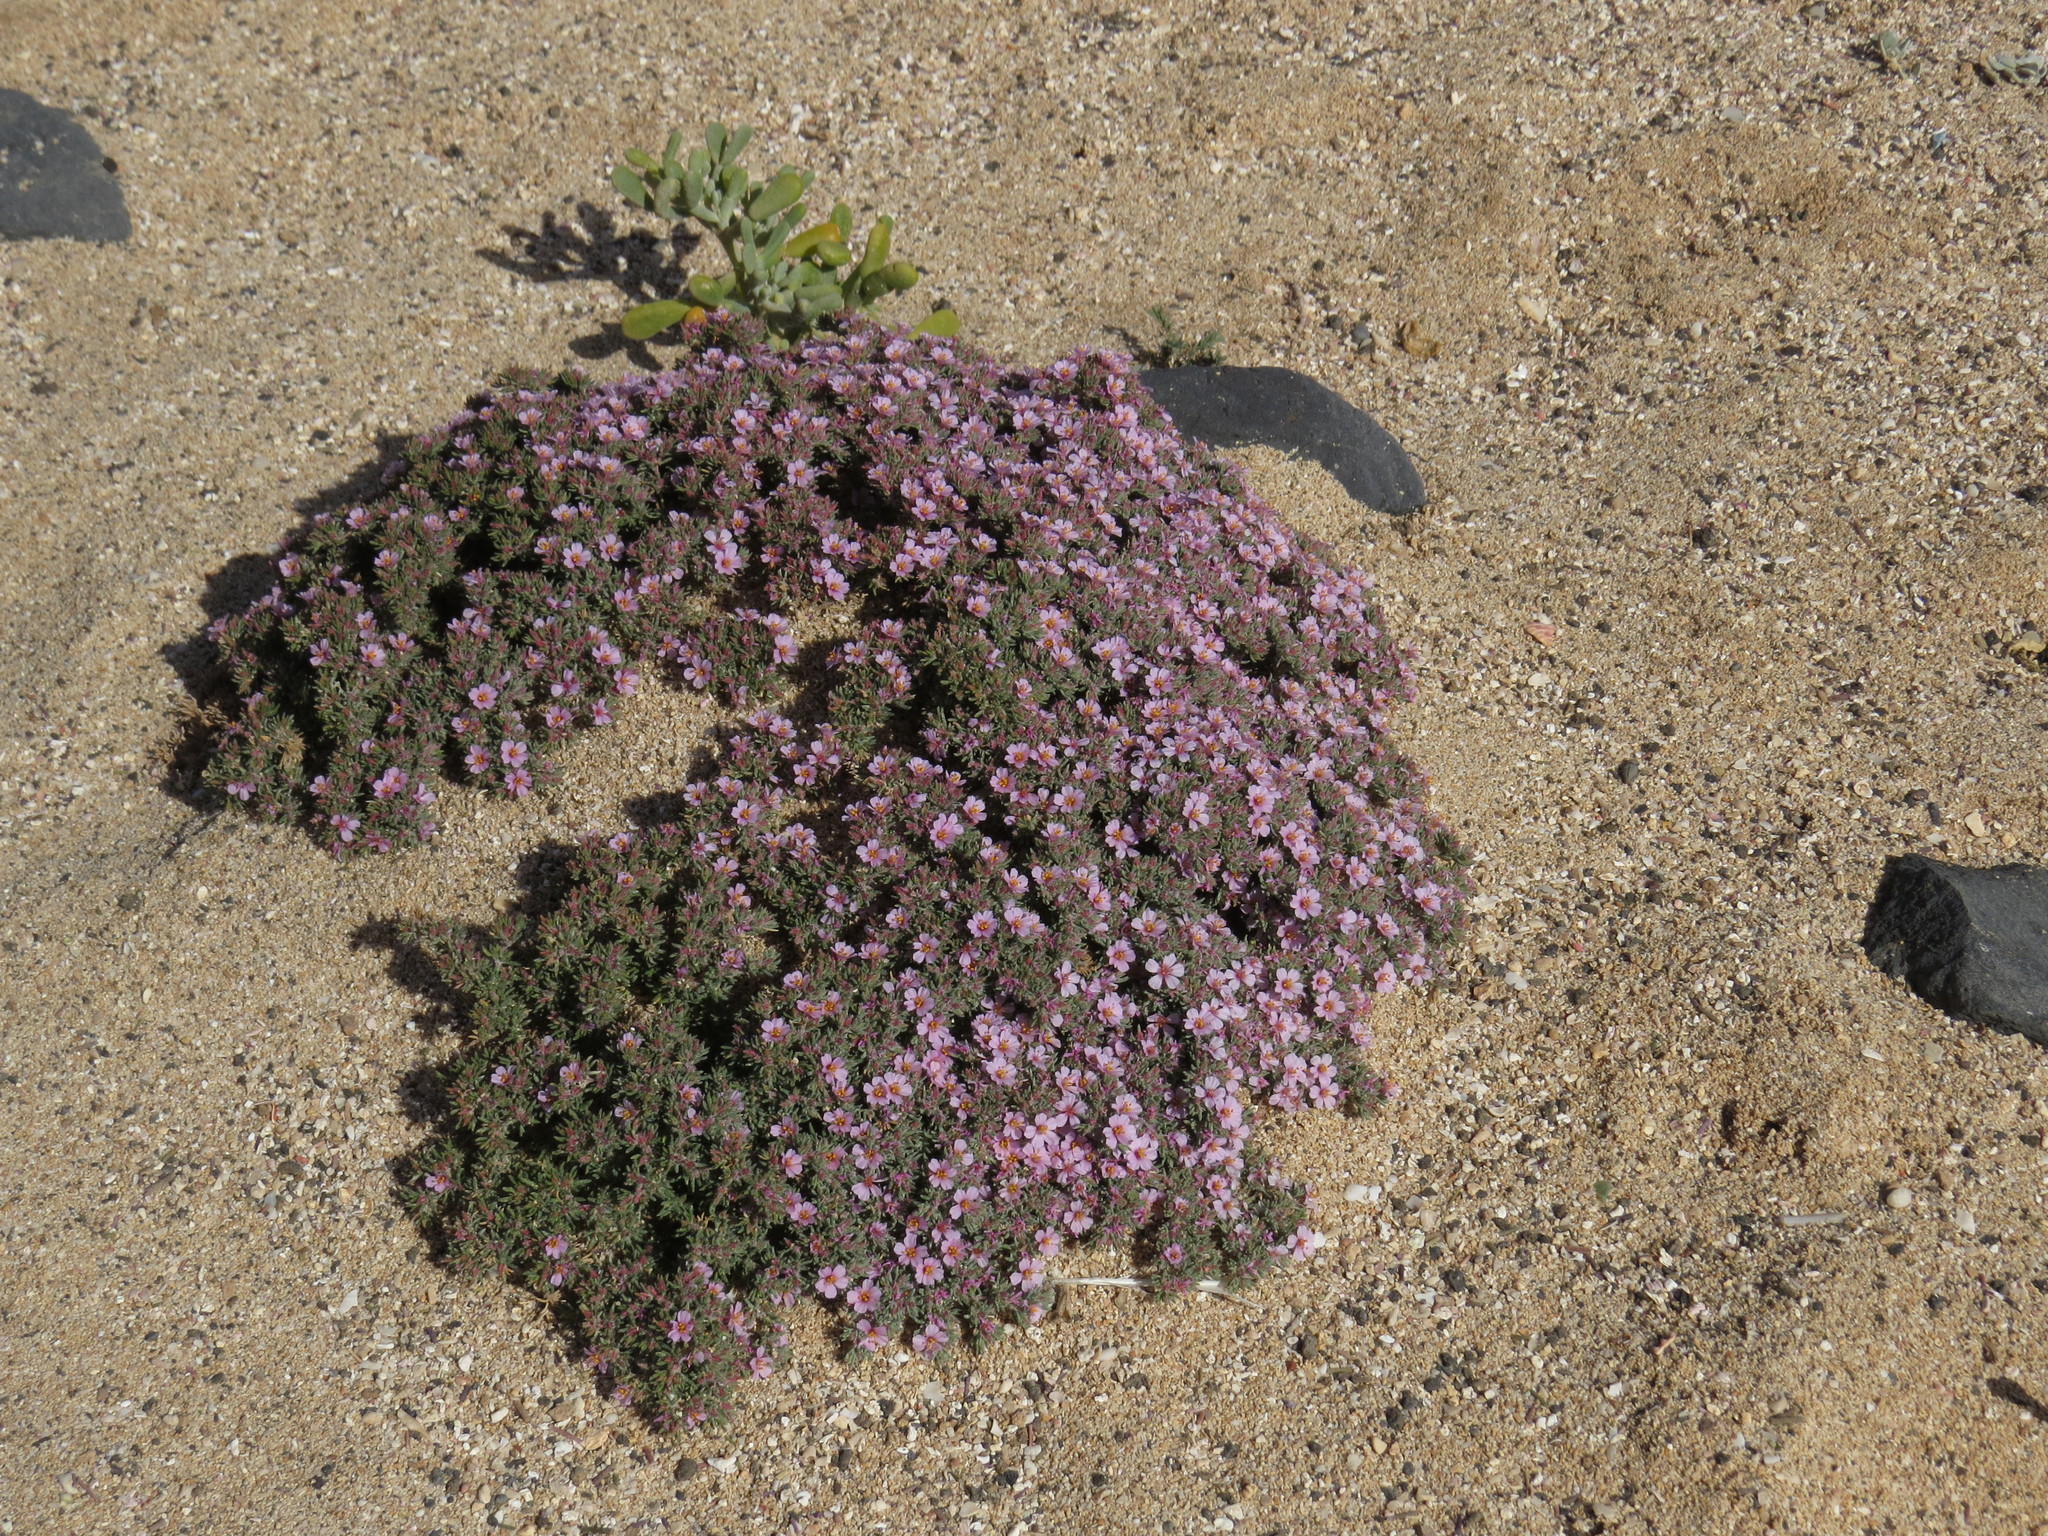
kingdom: Plantae
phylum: Tracheophyta
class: Magnoliopsida
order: Caryophyllales
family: Frankeniaceae
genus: Frankenia
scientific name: Frankenia ericifolia
